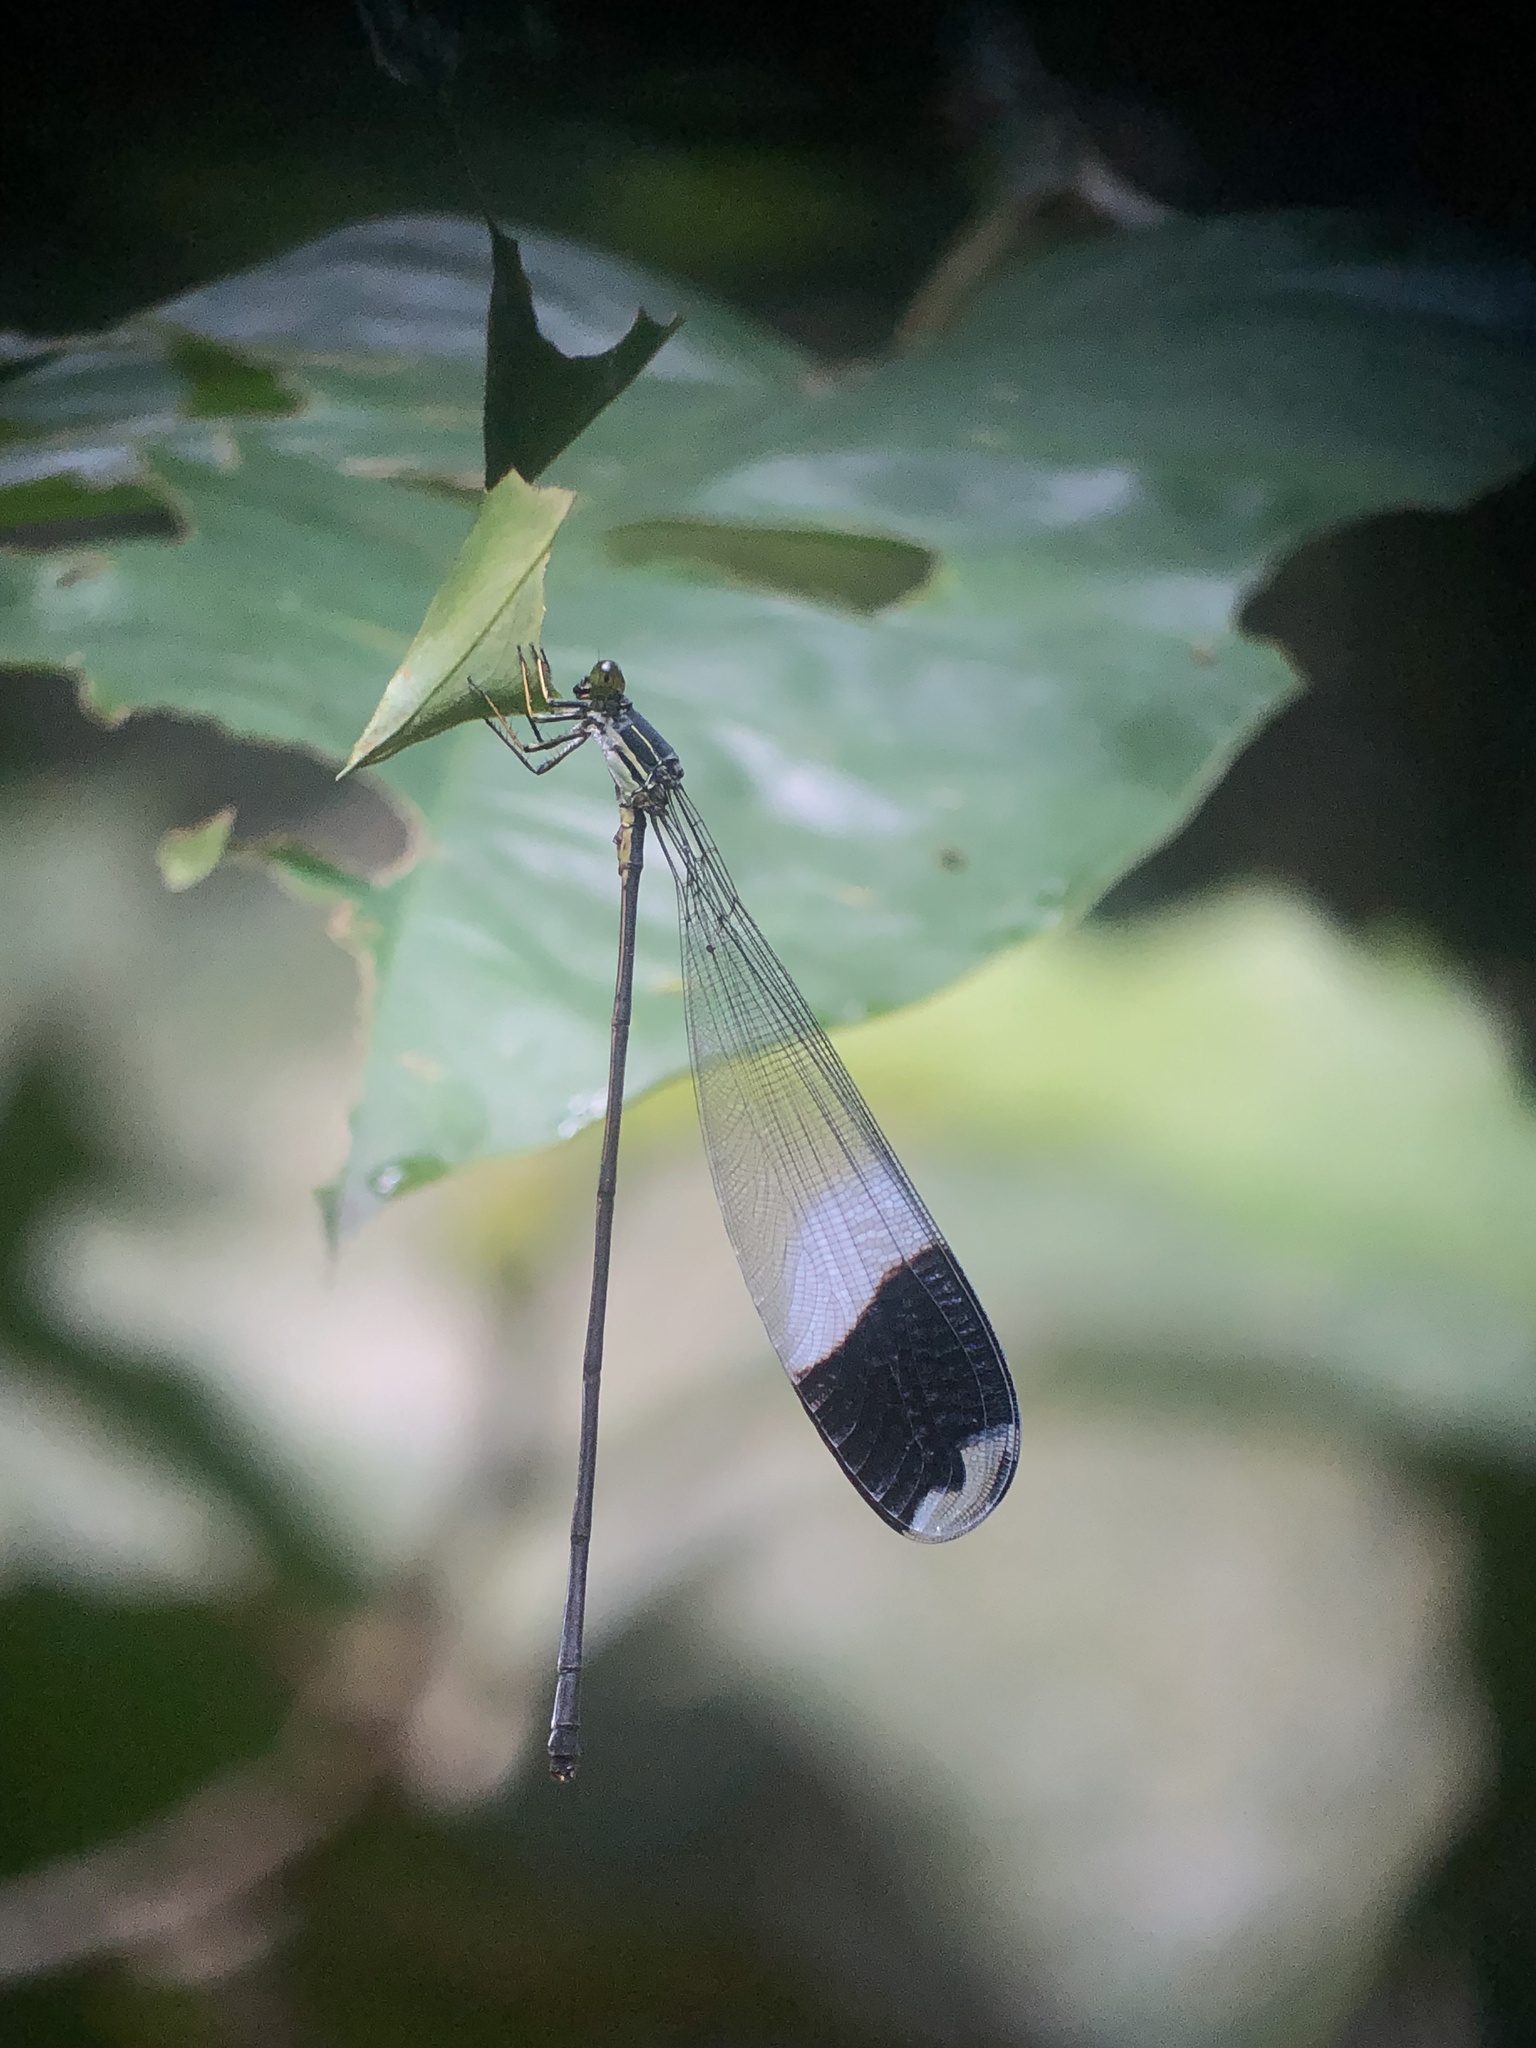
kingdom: Animalia
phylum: Arthropoda
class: Insecta
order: Odonata
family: Coenagrionidae
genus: Megaloprepus
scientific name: Megaloprepus caerulatus
